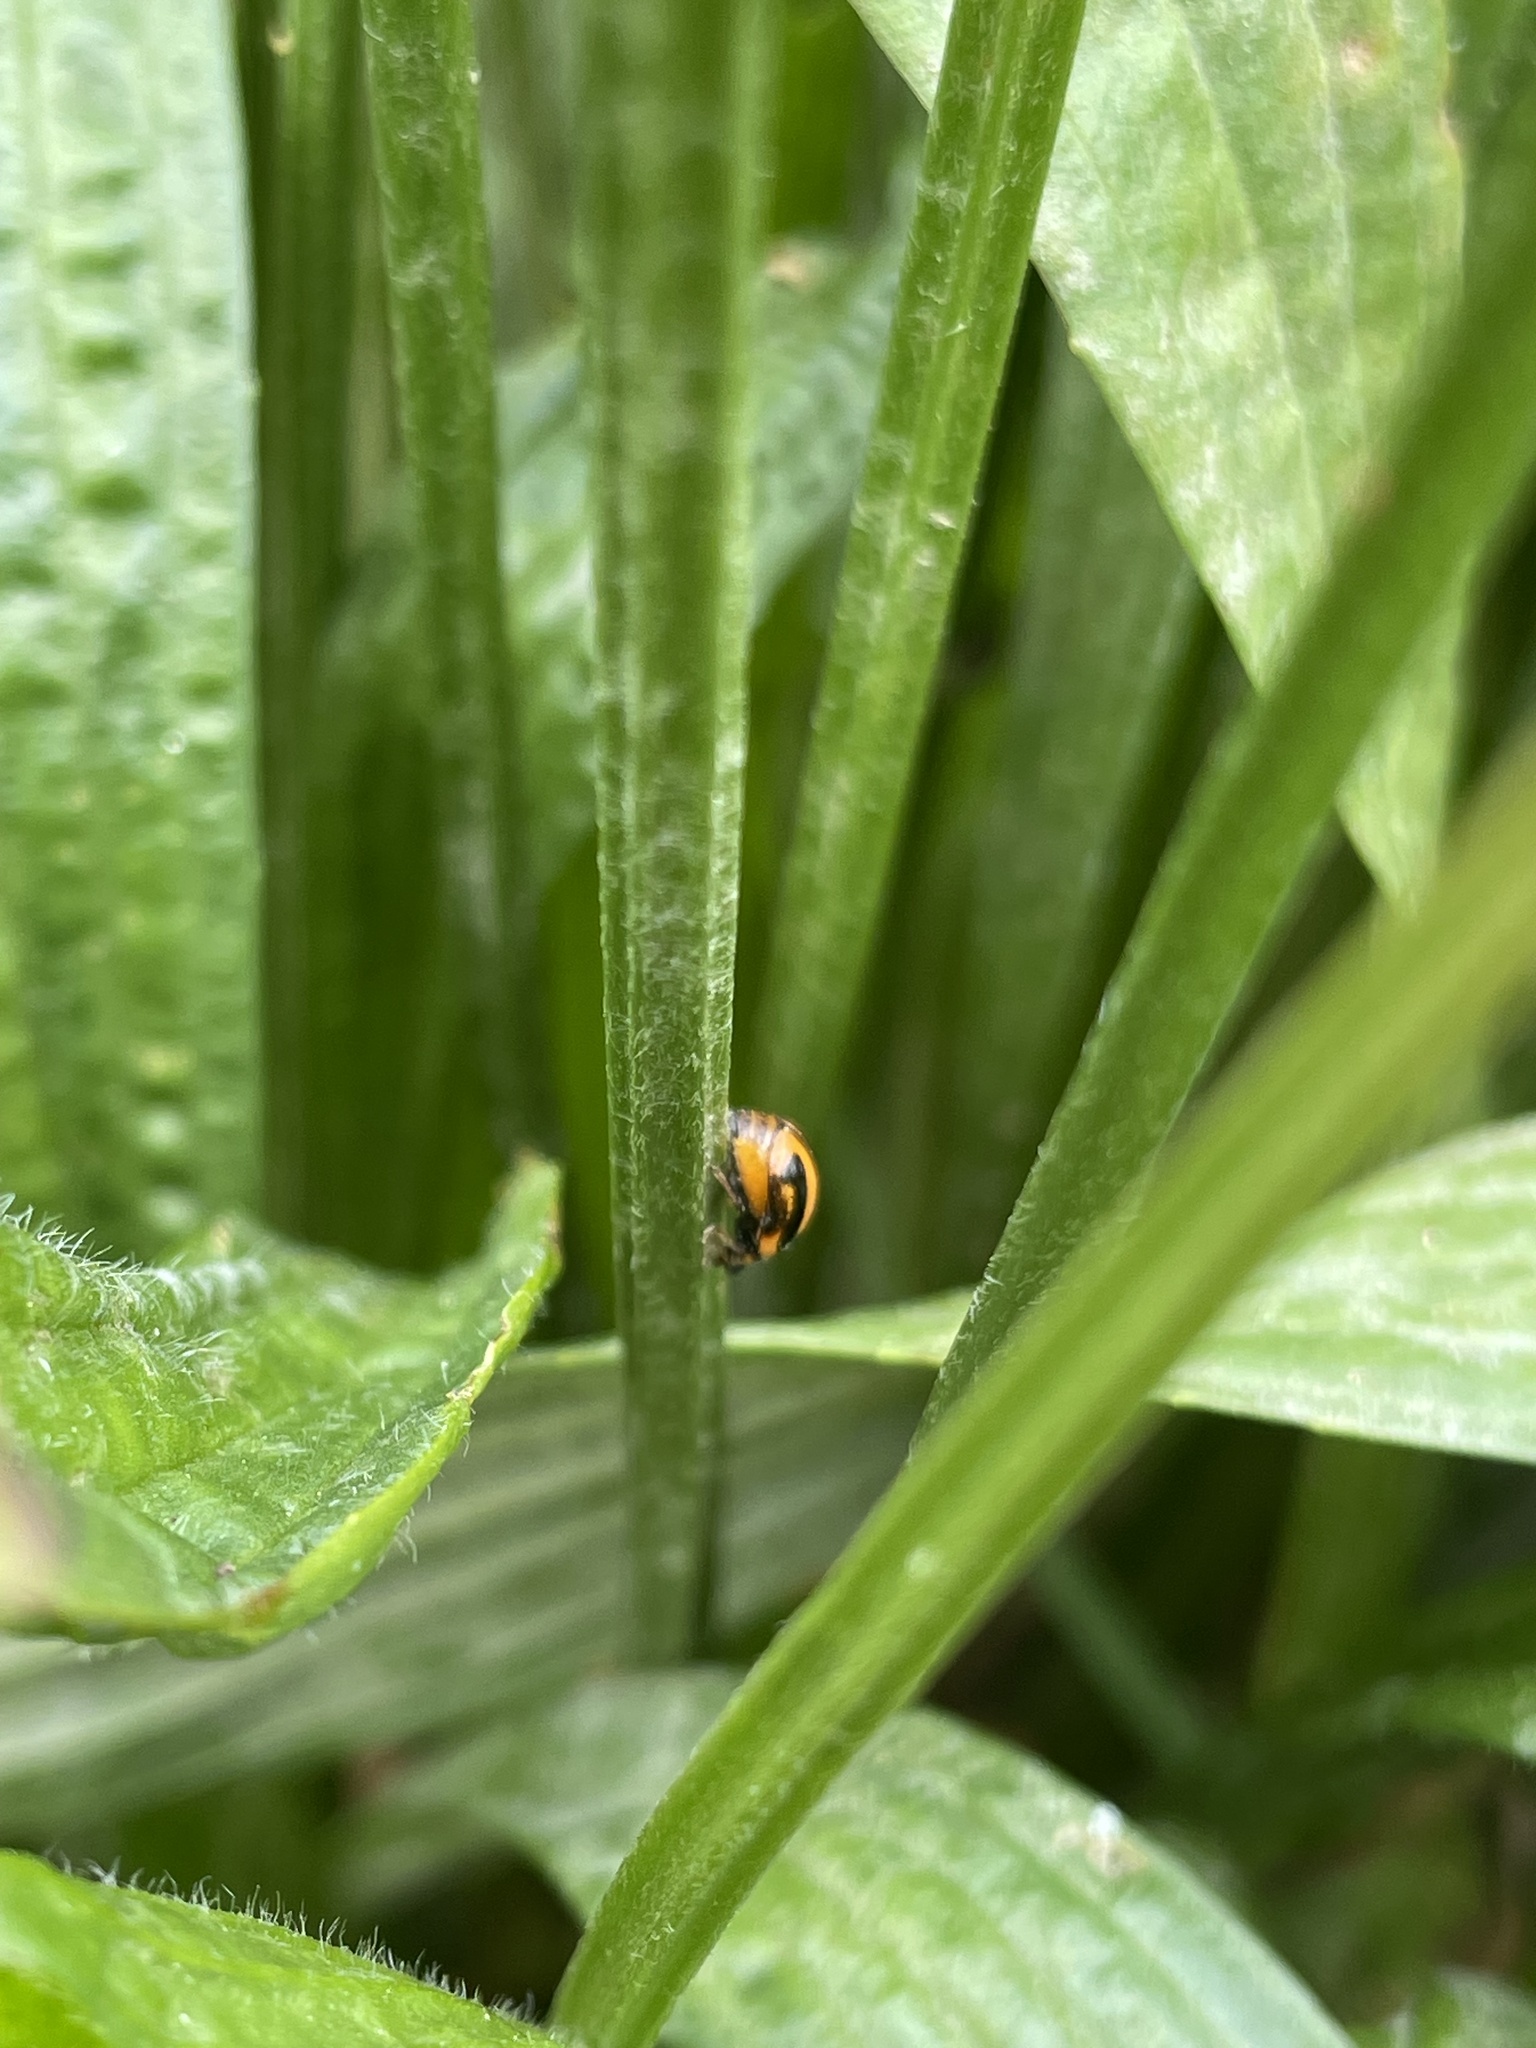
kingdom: Animalia
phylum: Arthropoda
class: Insecta
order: Coleoptera
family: Coccinellidae
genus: Micraspis
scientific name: Micraspis frenata
